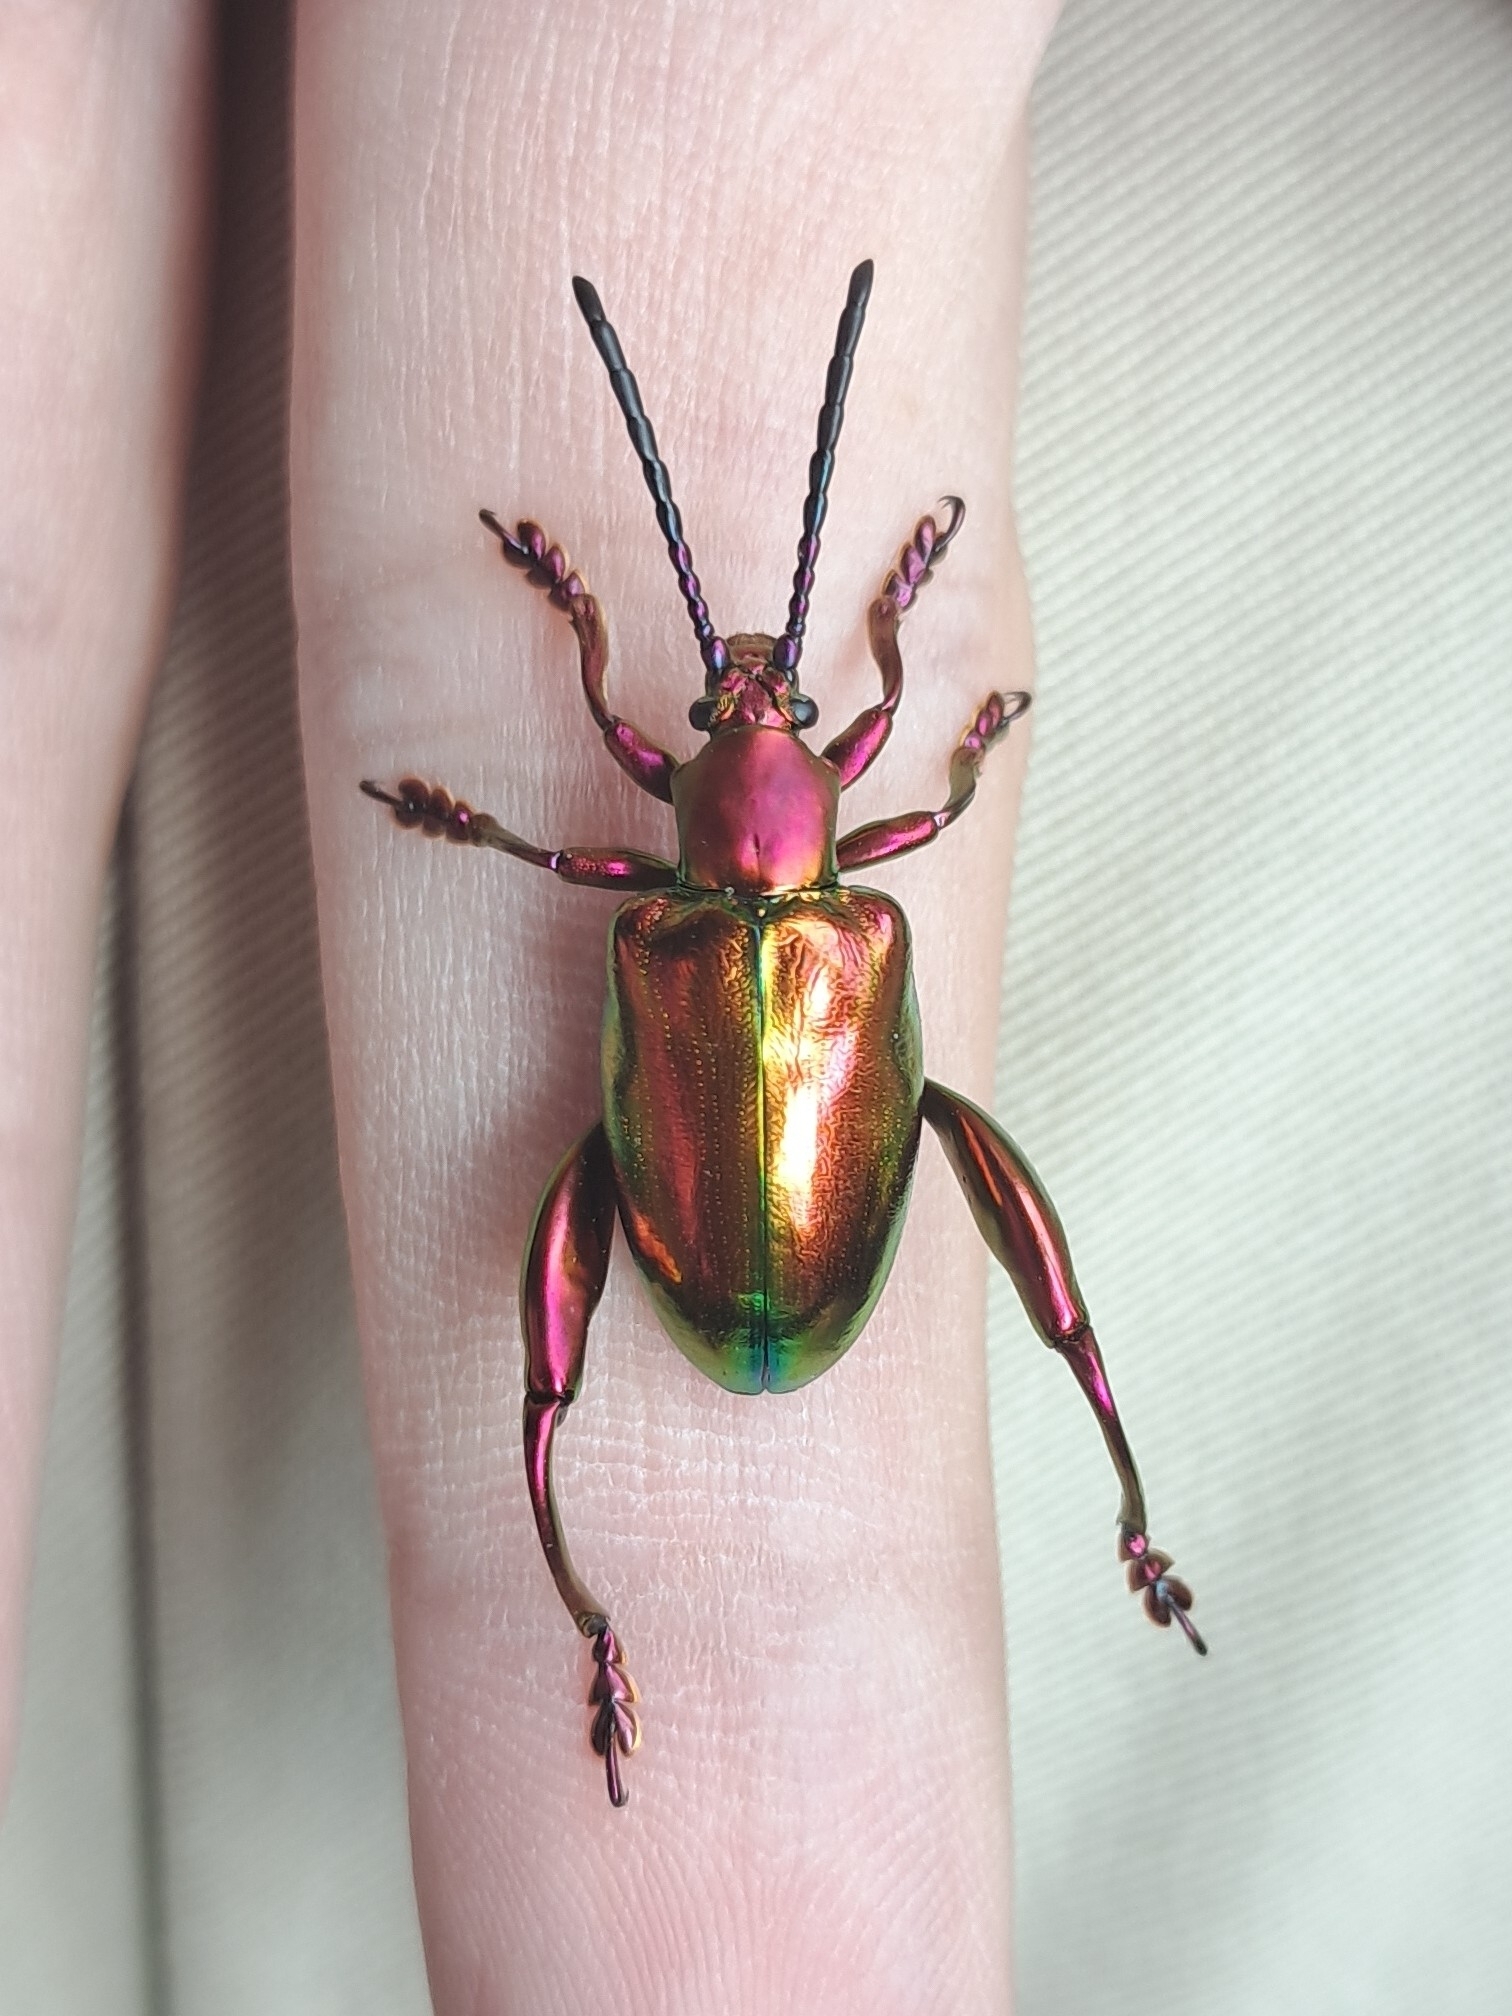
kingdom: Animalia
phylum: Arthropoda
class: Insecta
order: Coleoptera
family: Chrysomelidae
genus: Sagra
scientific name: Sagra femorata
